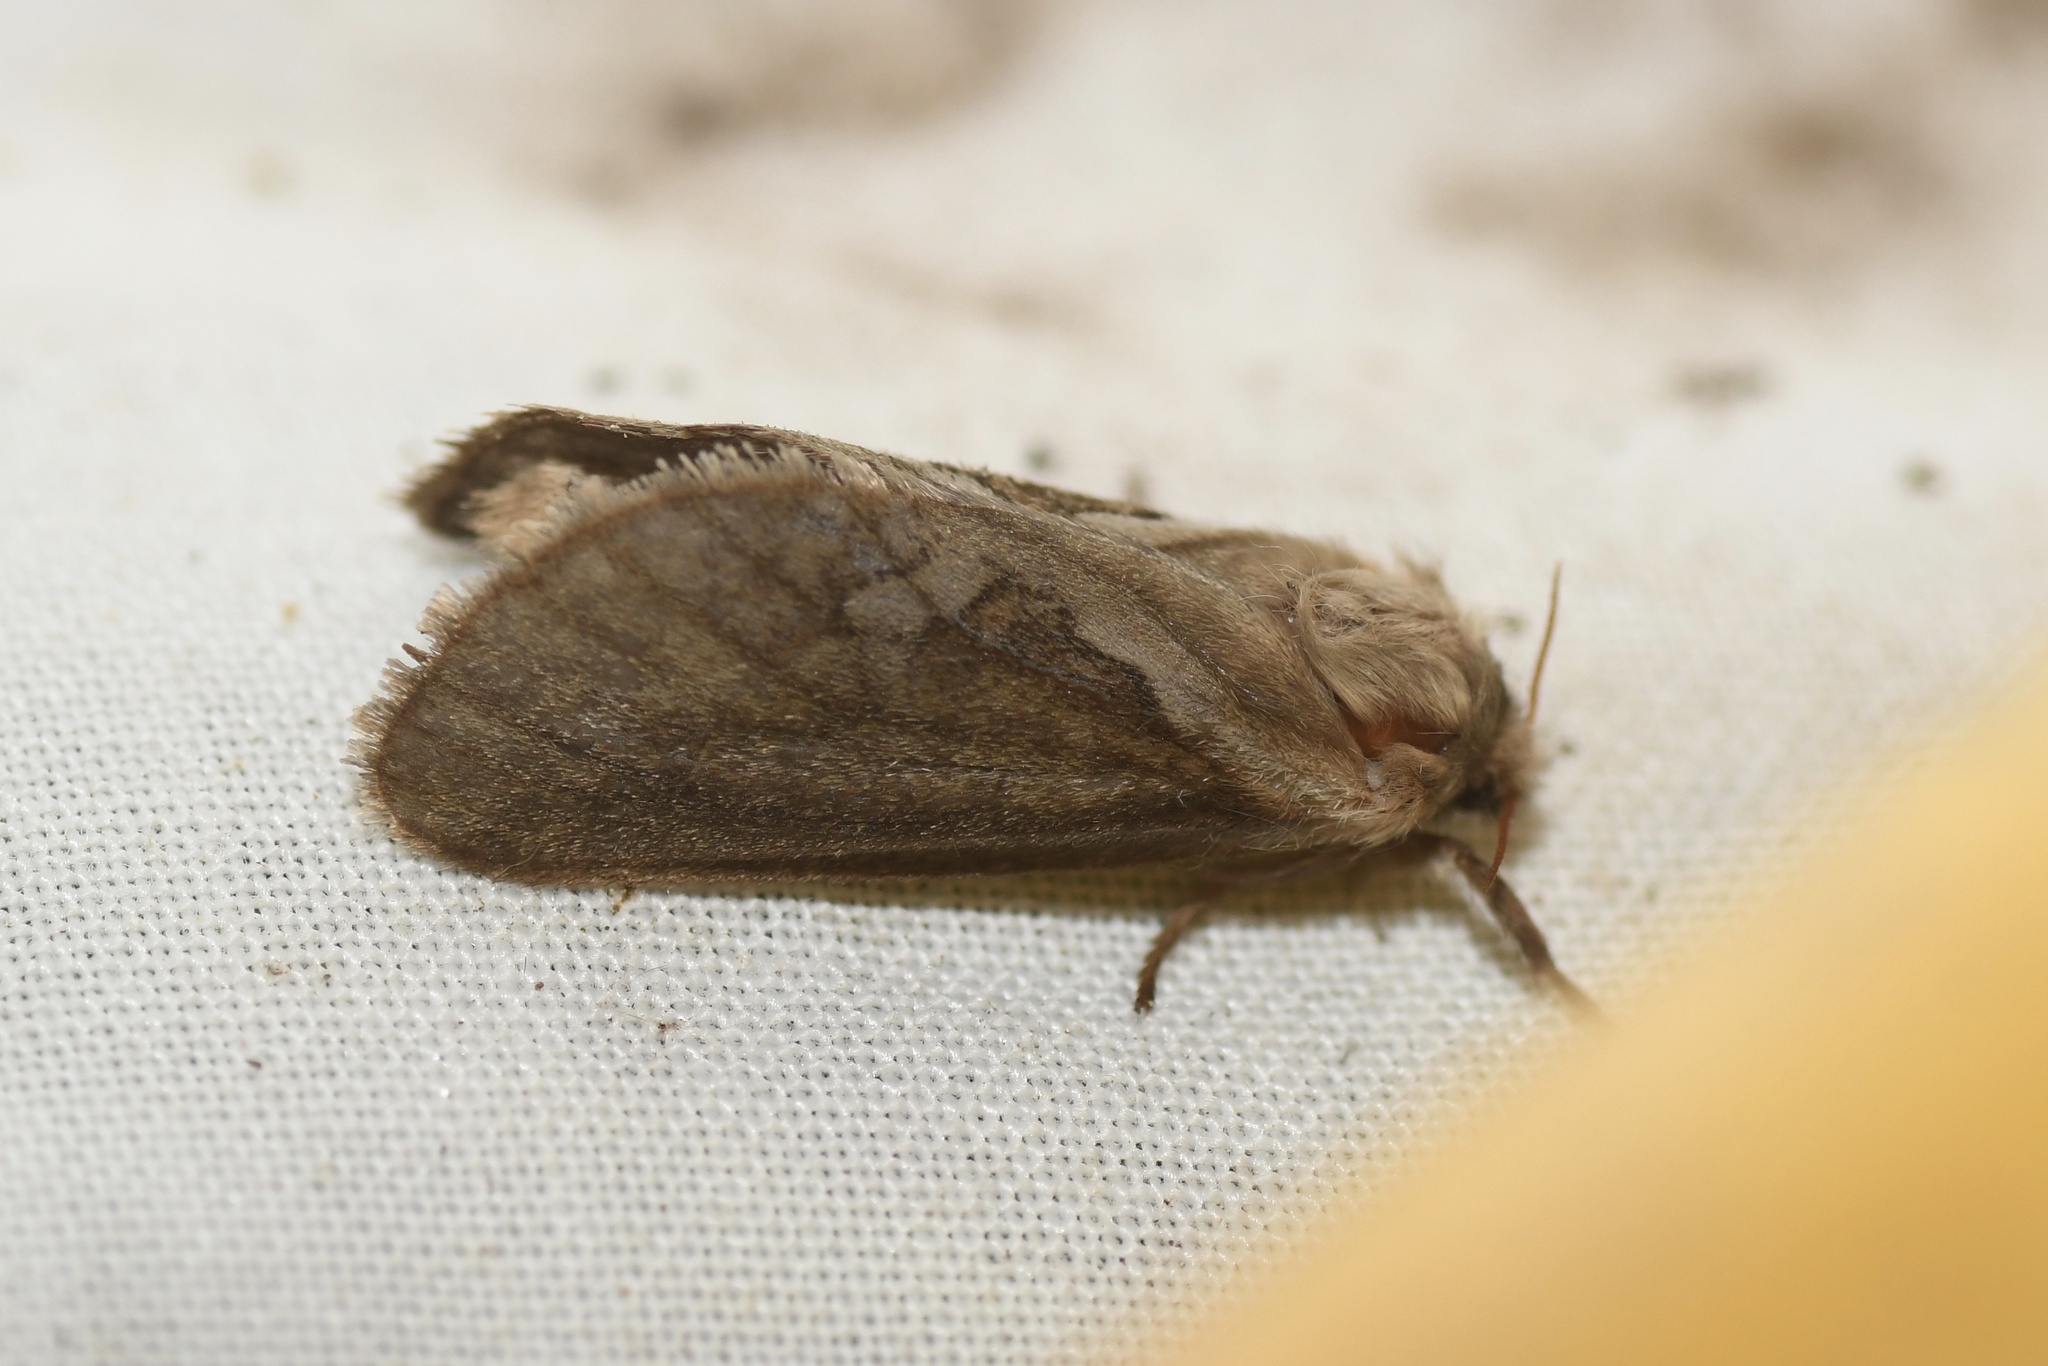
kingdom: Animalia
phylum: Arthropoda
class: Insecta
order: Lepidoptera
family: Hepialidae
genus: Korscheltellus
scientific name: Korscheltellus lupulina
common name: Common swift
